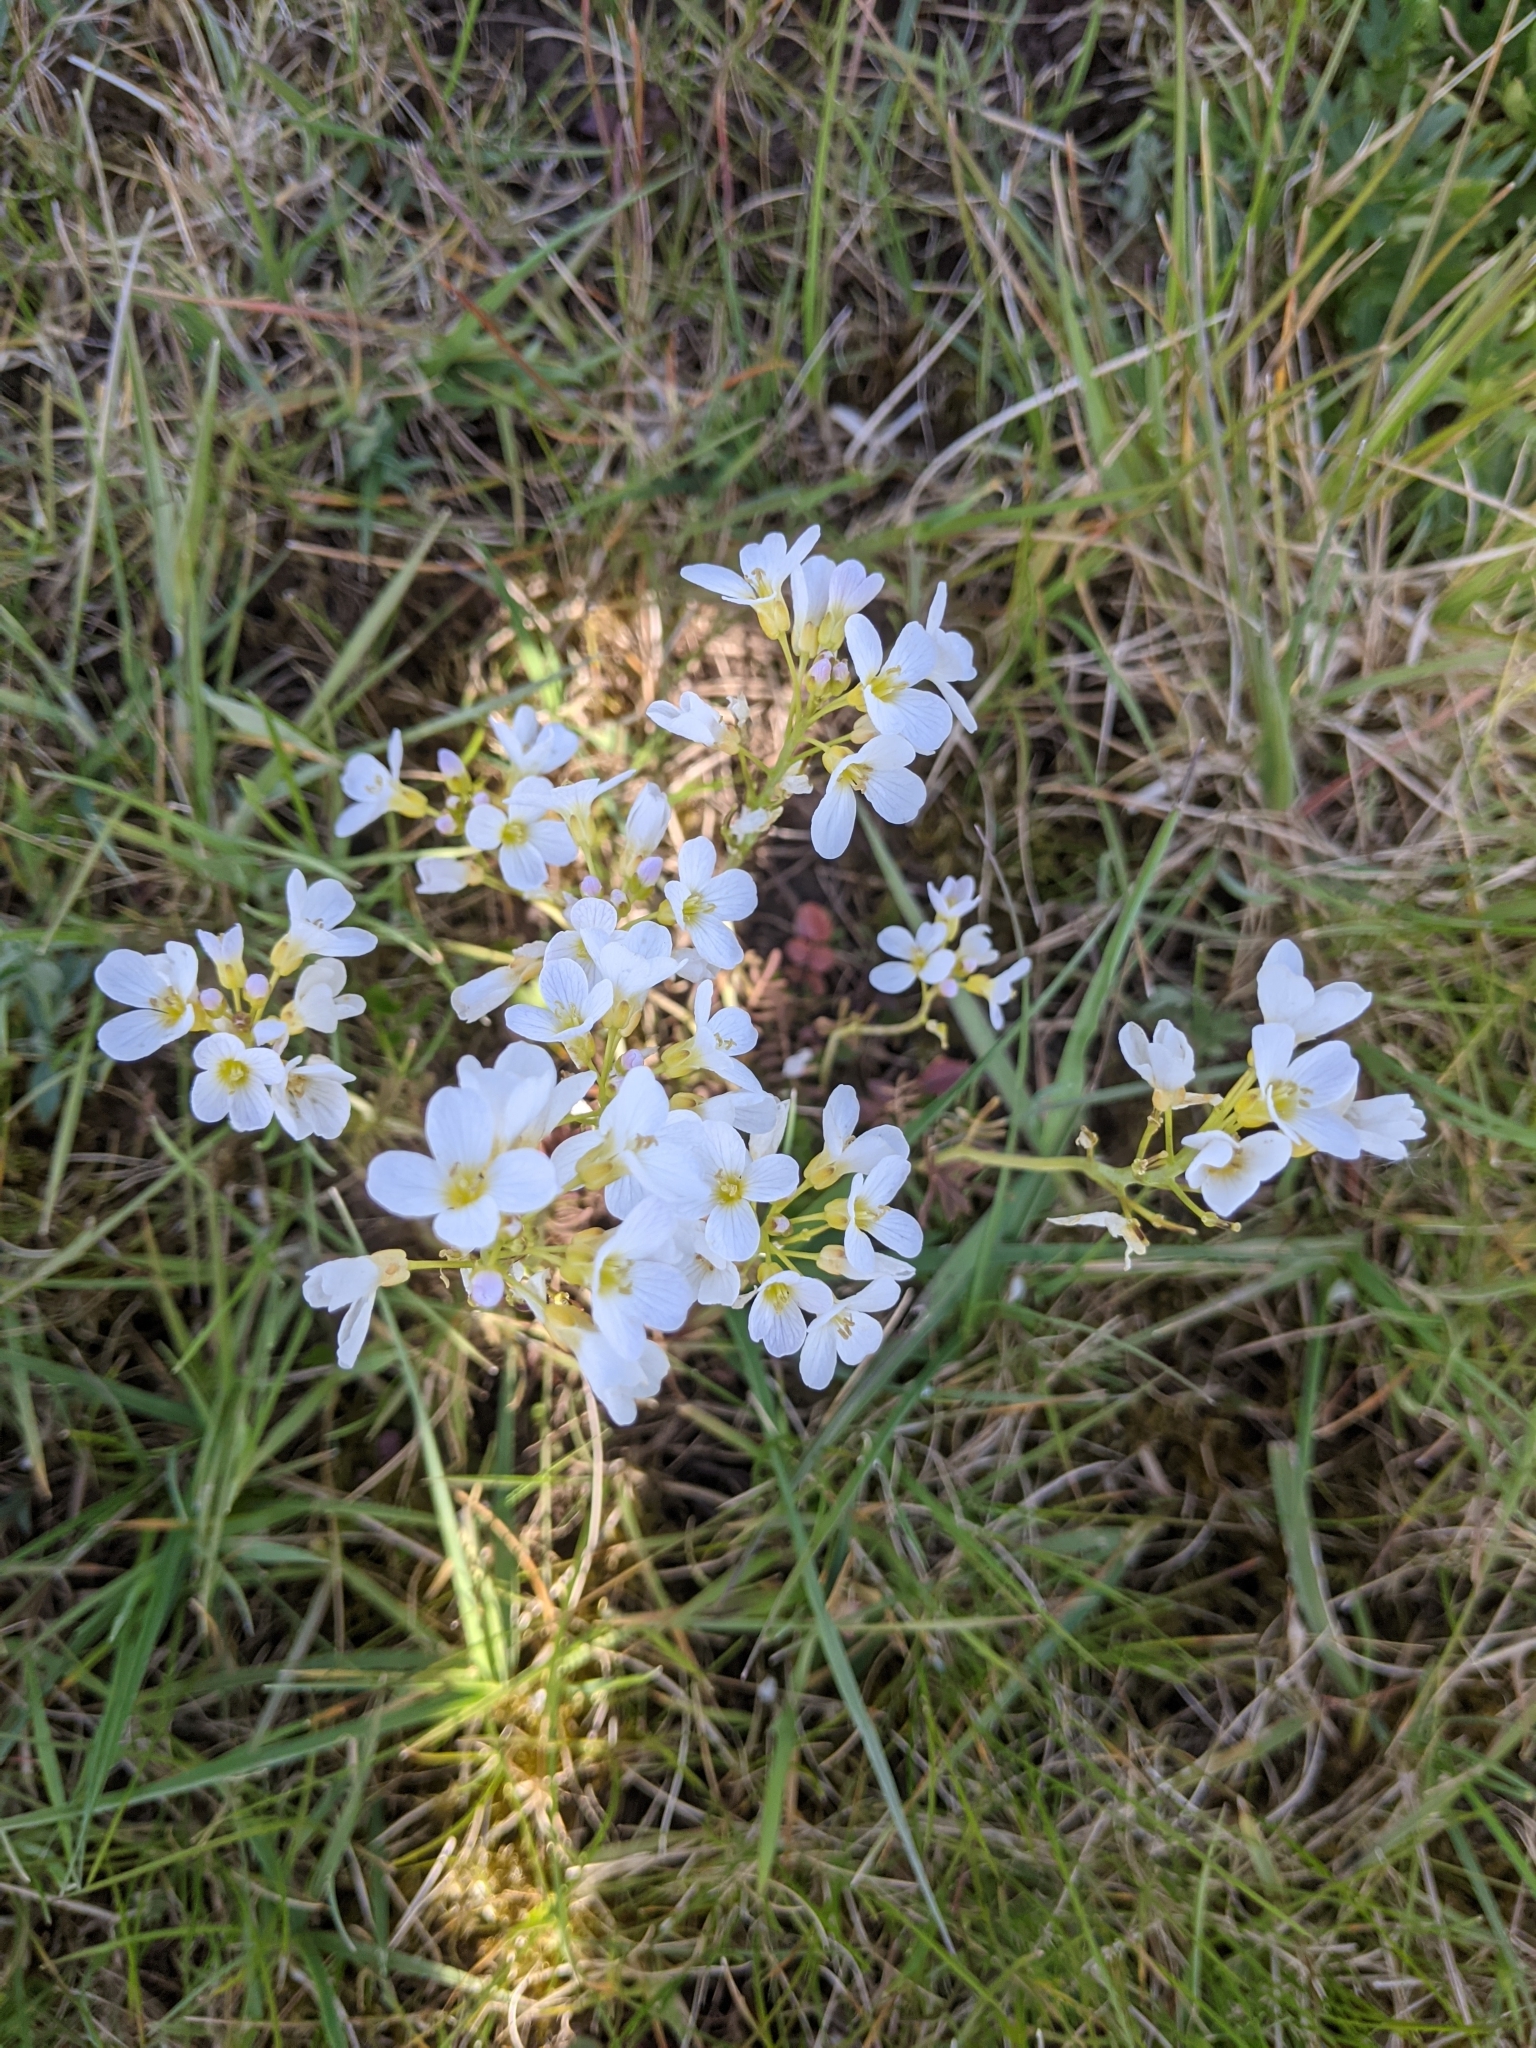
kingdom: Plantae
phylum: Tracheophyta
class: Magnoliopsida
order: Brassicales
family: Brassicaceae
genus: Cardamine
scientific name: Cardamine pratensis
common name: Cuckoo flower
